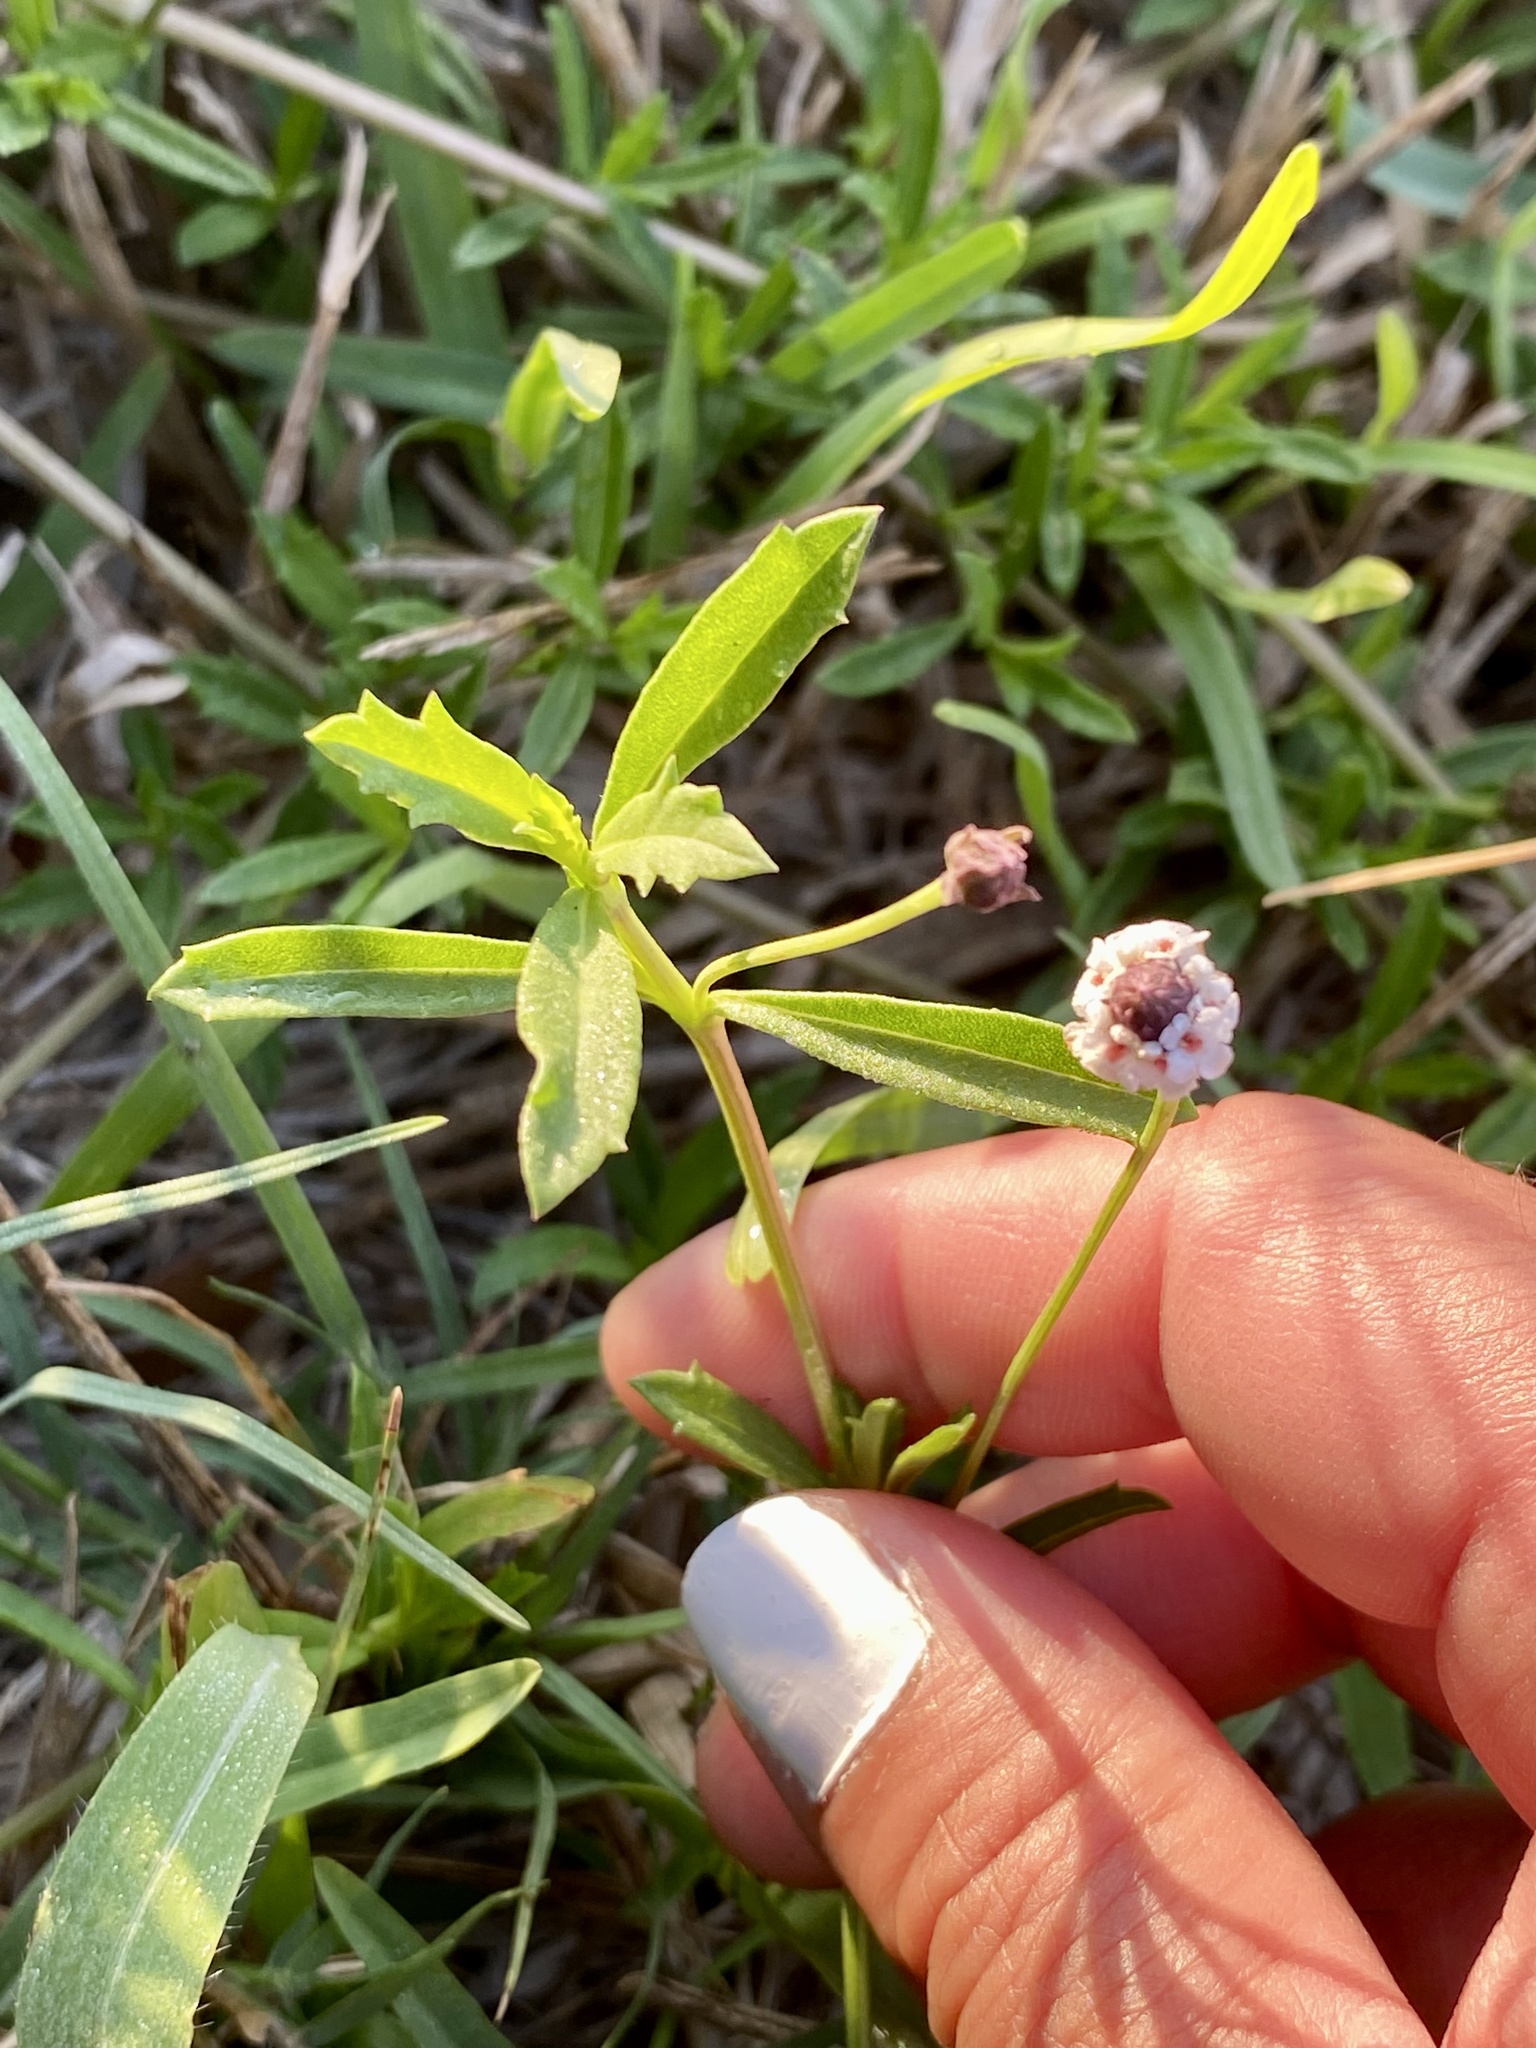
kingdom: Plantae
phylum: Tracheophyta
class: Magnoliopsida
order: Lamiales
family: Verbenaceae
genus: Phyla
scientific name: Phyla nodiflora
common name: Frogfruit
